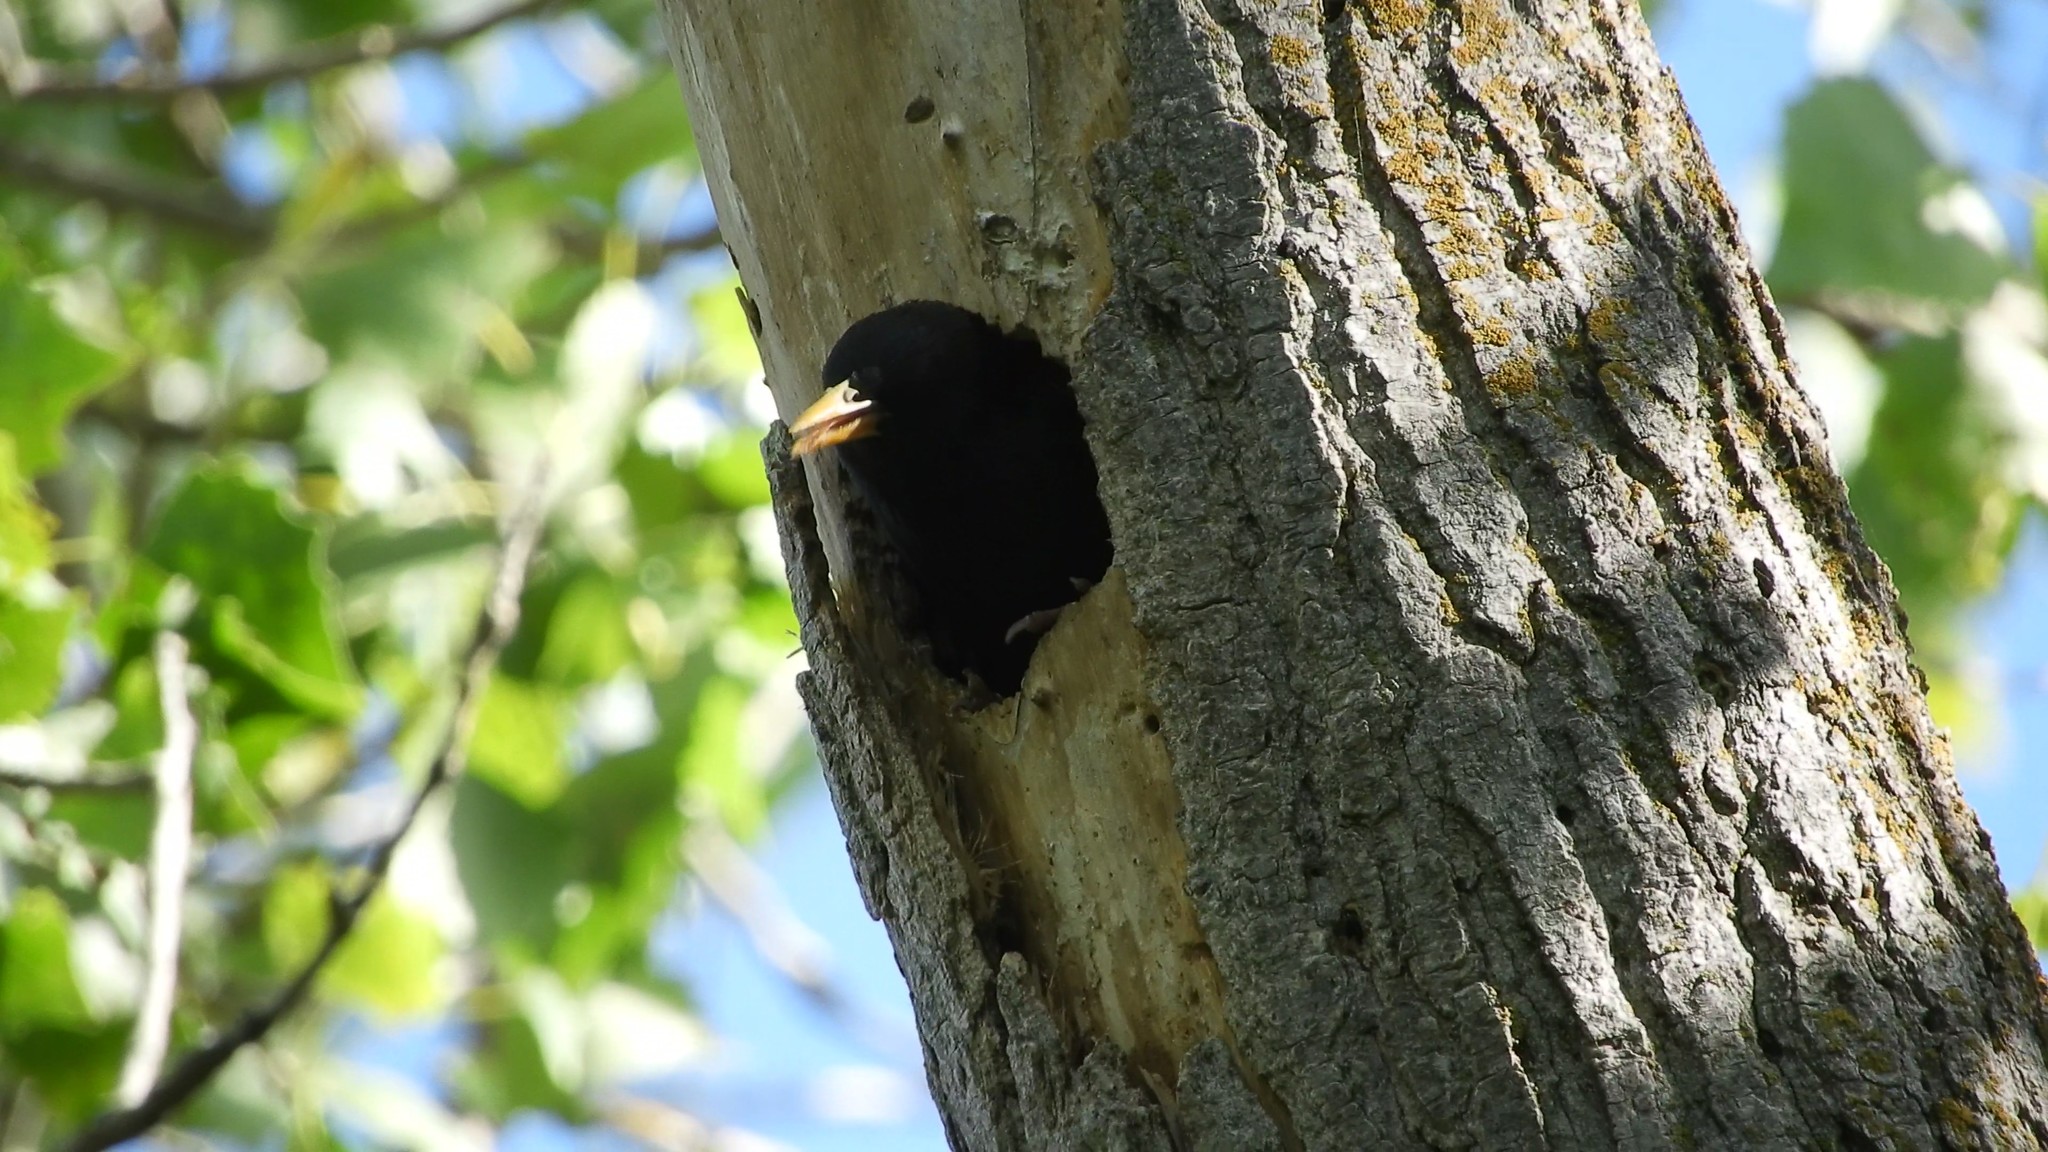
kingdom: Animalia
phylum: Chordata
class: Aves
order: Passeriformes
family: Sturnidae
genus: Sturnus
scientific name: Sturnus vulgaris
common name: Common starling
